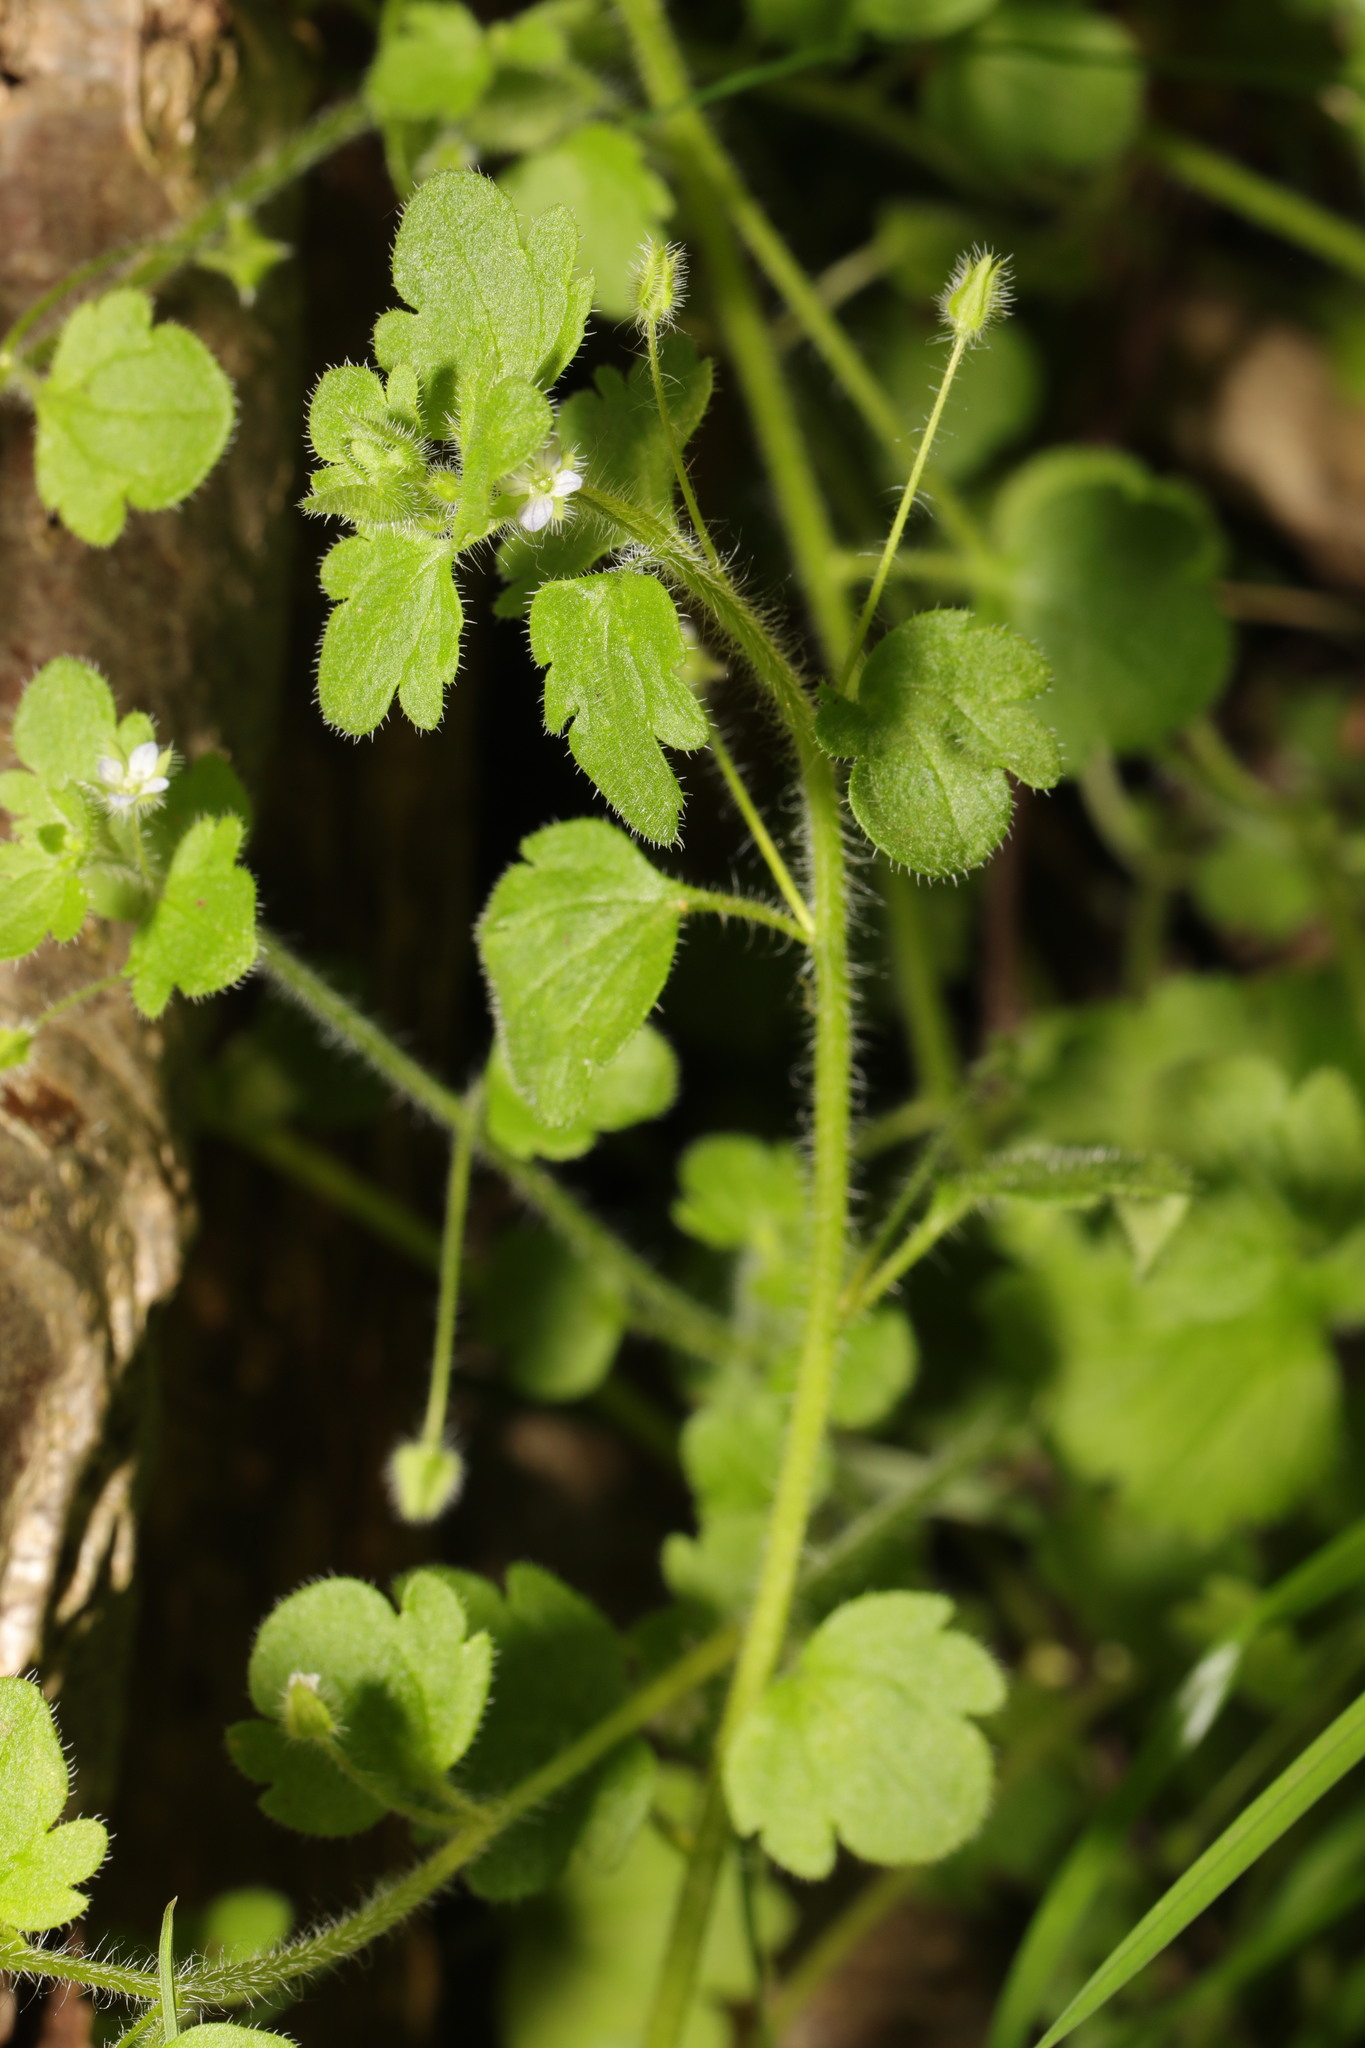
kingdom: Plantae
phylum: Tracheophyta
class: Magnoliopsida
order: Lamiales
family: Plantaginaceae
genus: Veronica
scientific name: Veronica hederifolia
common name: Ivy-leaved speedwell
